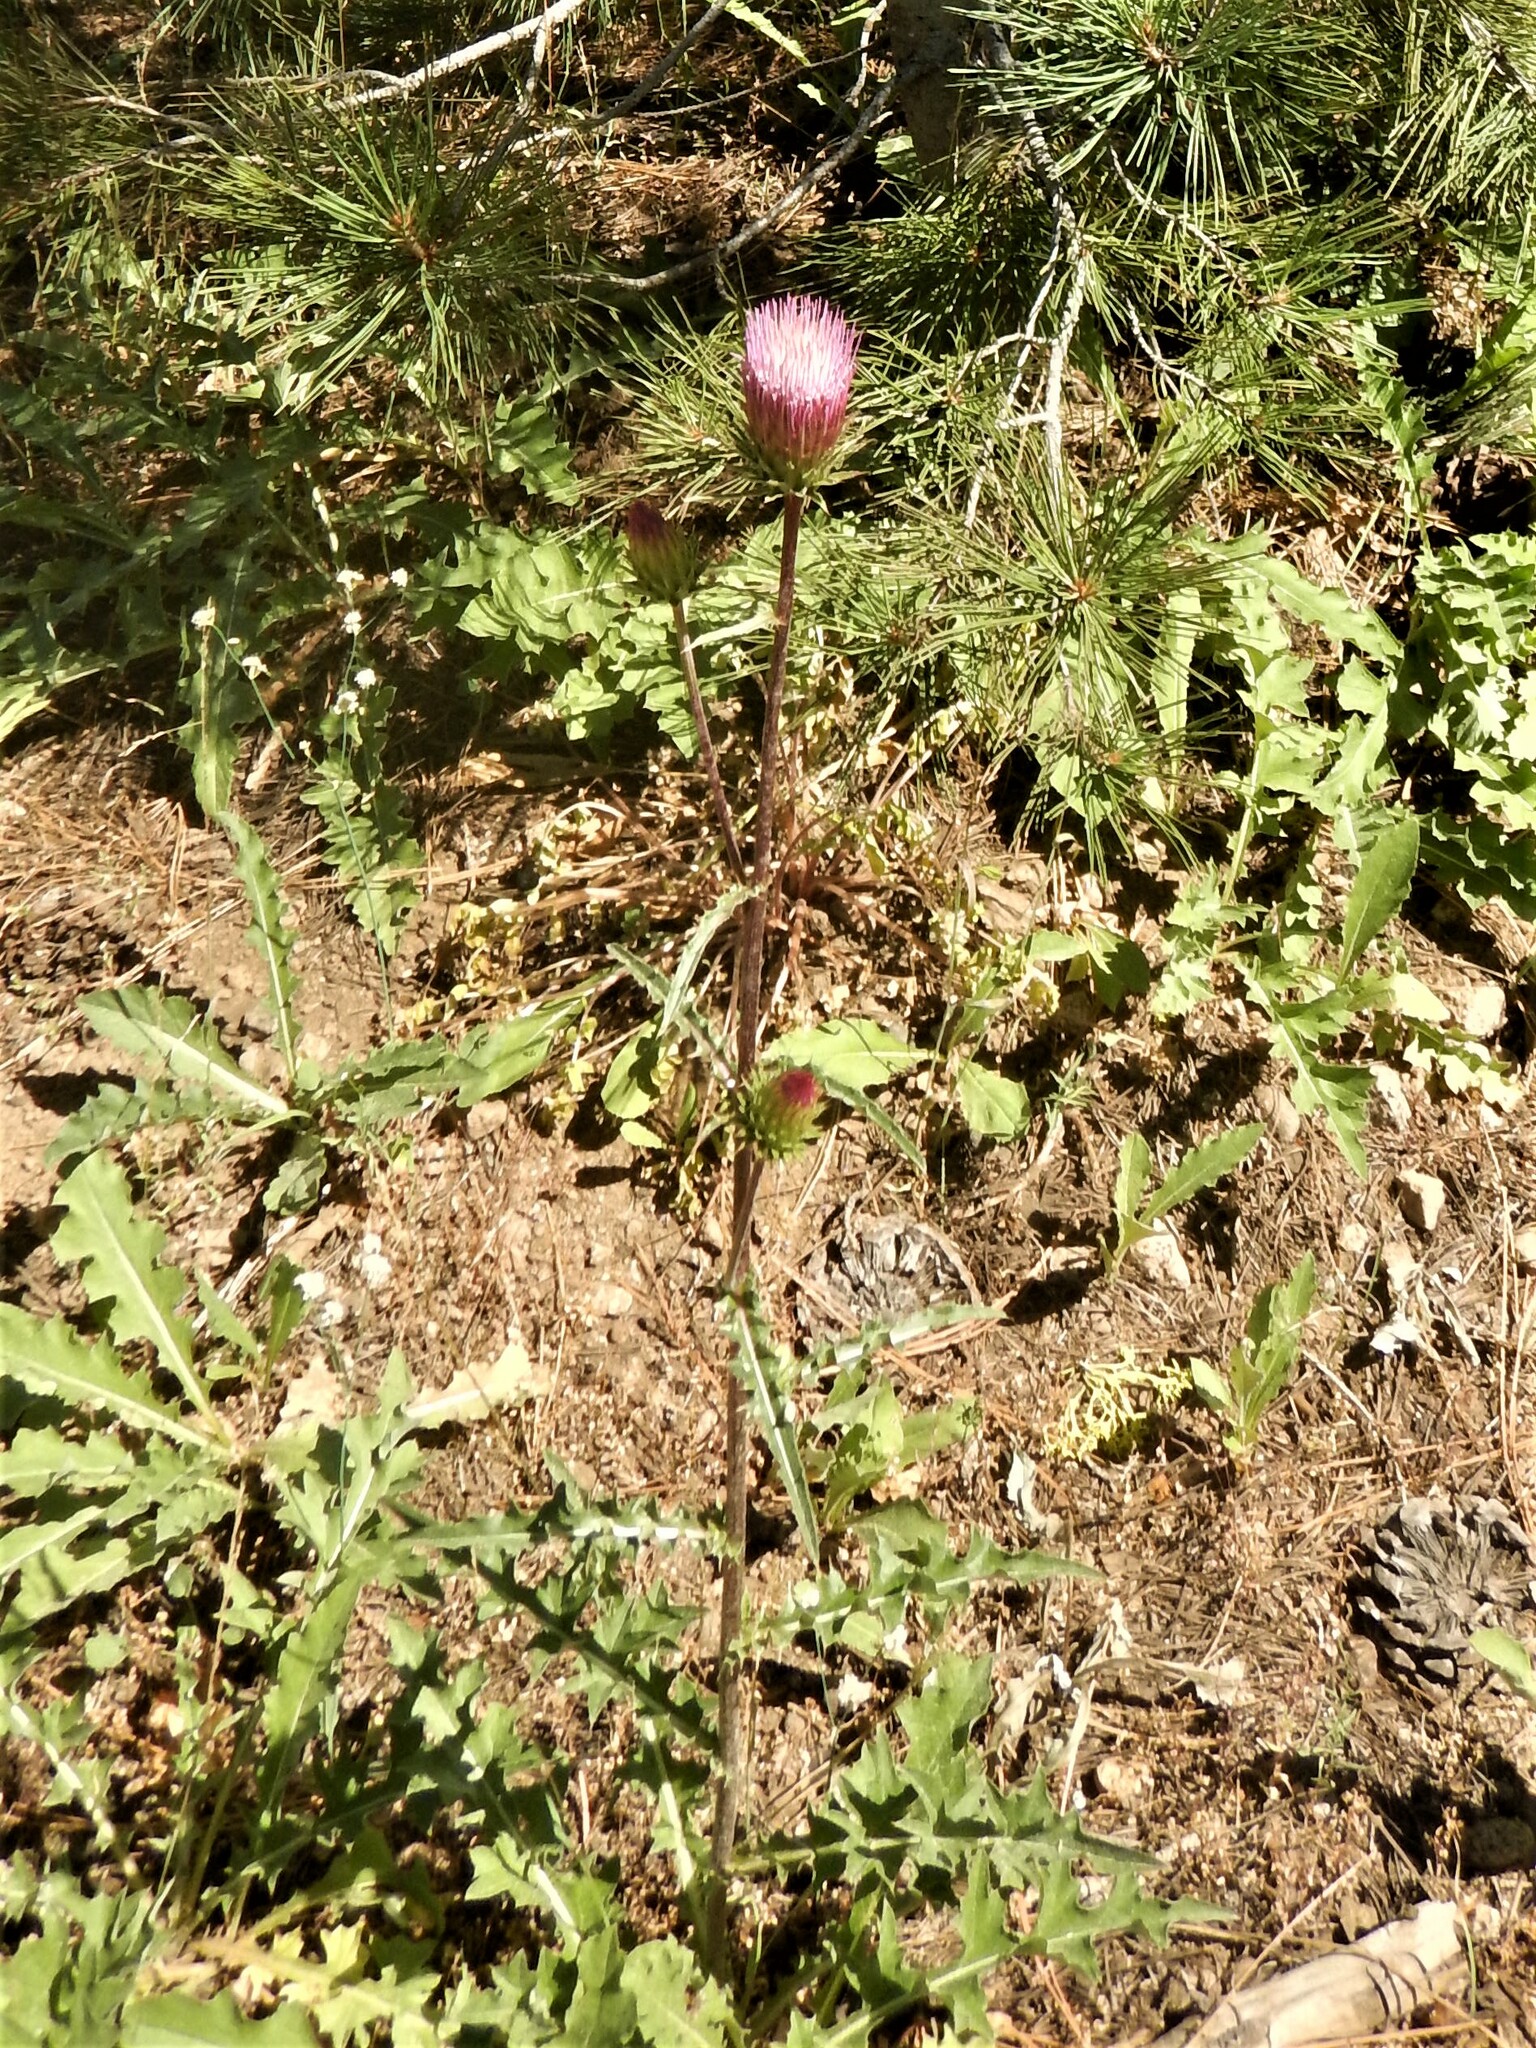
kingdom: Plantae
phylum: Tracheophyta
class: Magnoliopsida
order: Asterales
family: Asteraceae
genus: Cirsium
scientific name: Cirsium andersonii
